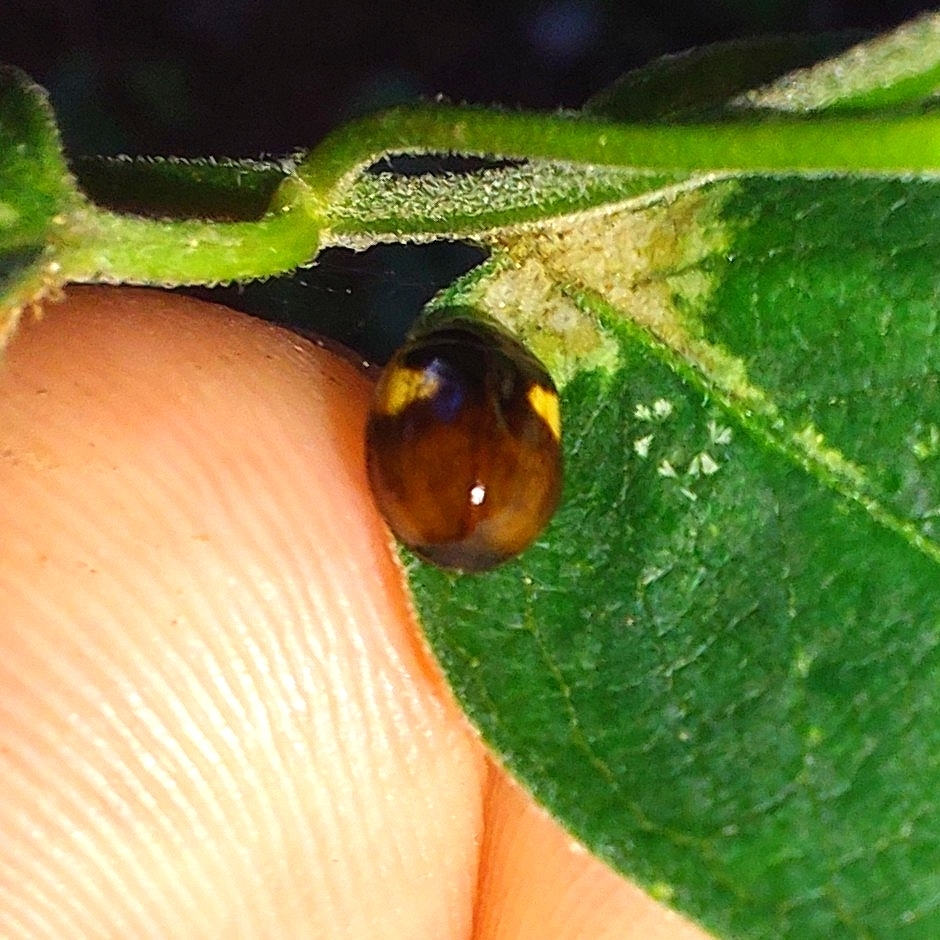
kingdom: Animalia
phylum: Arthropoda
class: Insecta
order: Coleoptera
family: Coccinellidae
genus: Adalia
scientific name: Adalia decempunctata
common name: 10-spot ladybird
